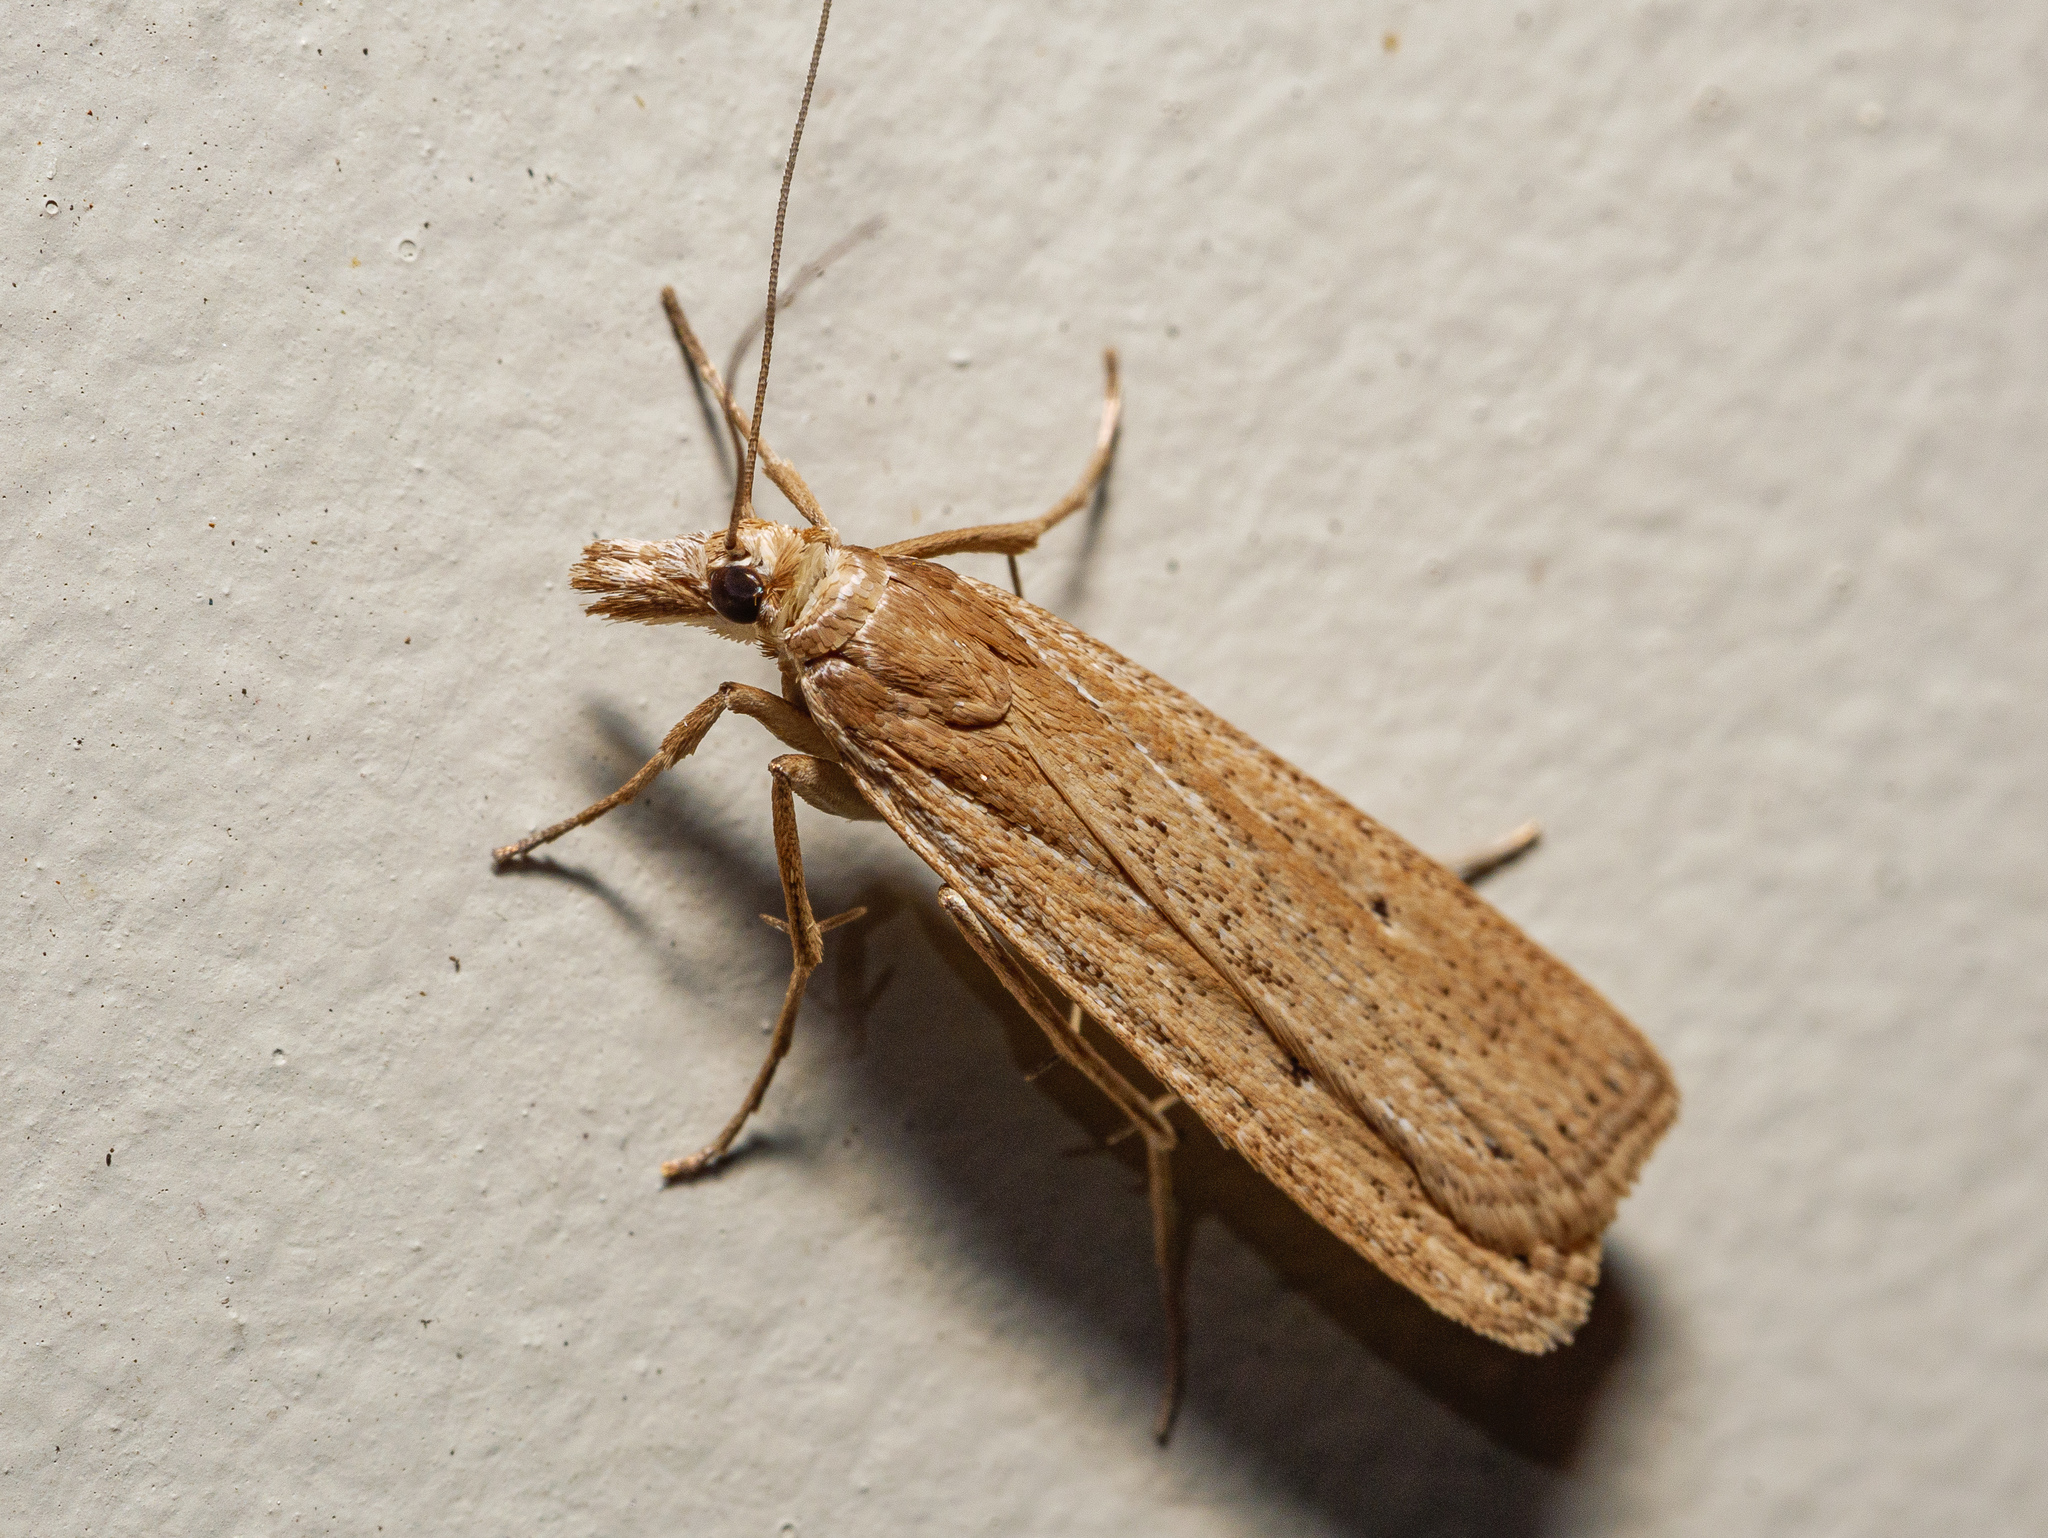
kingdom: Animalia
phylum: Arthropoda
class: Insecta
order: Lepidoptera
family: Crambidae
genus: Eudonia
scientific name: Eudonia sabulosella
